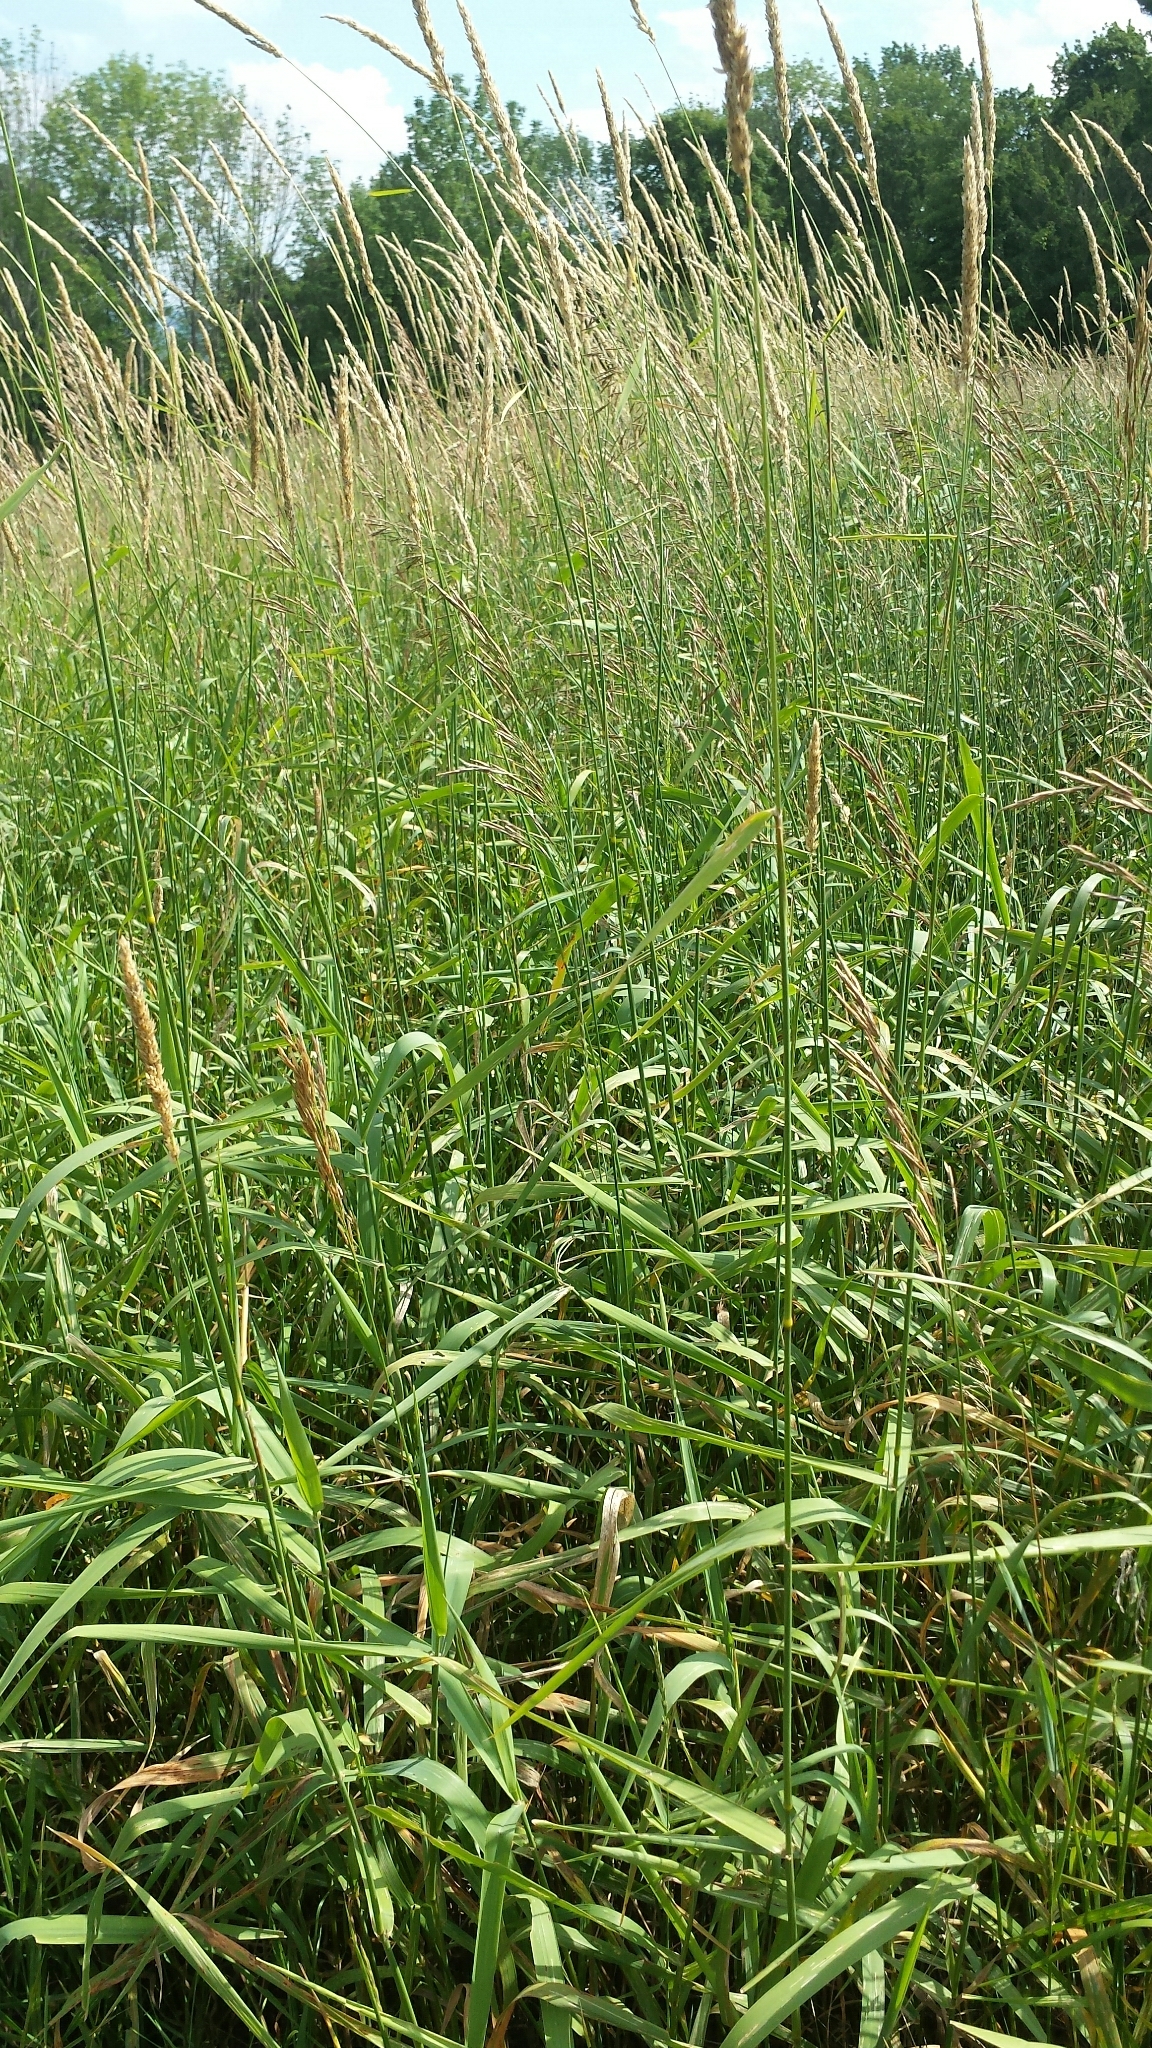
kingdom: Plantae
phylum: Tracheophyta
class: Liliopsida
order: Poales
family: Poaceae
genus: Phalaris
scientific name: Phalaris arundinacea
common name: Reed canary-grass
